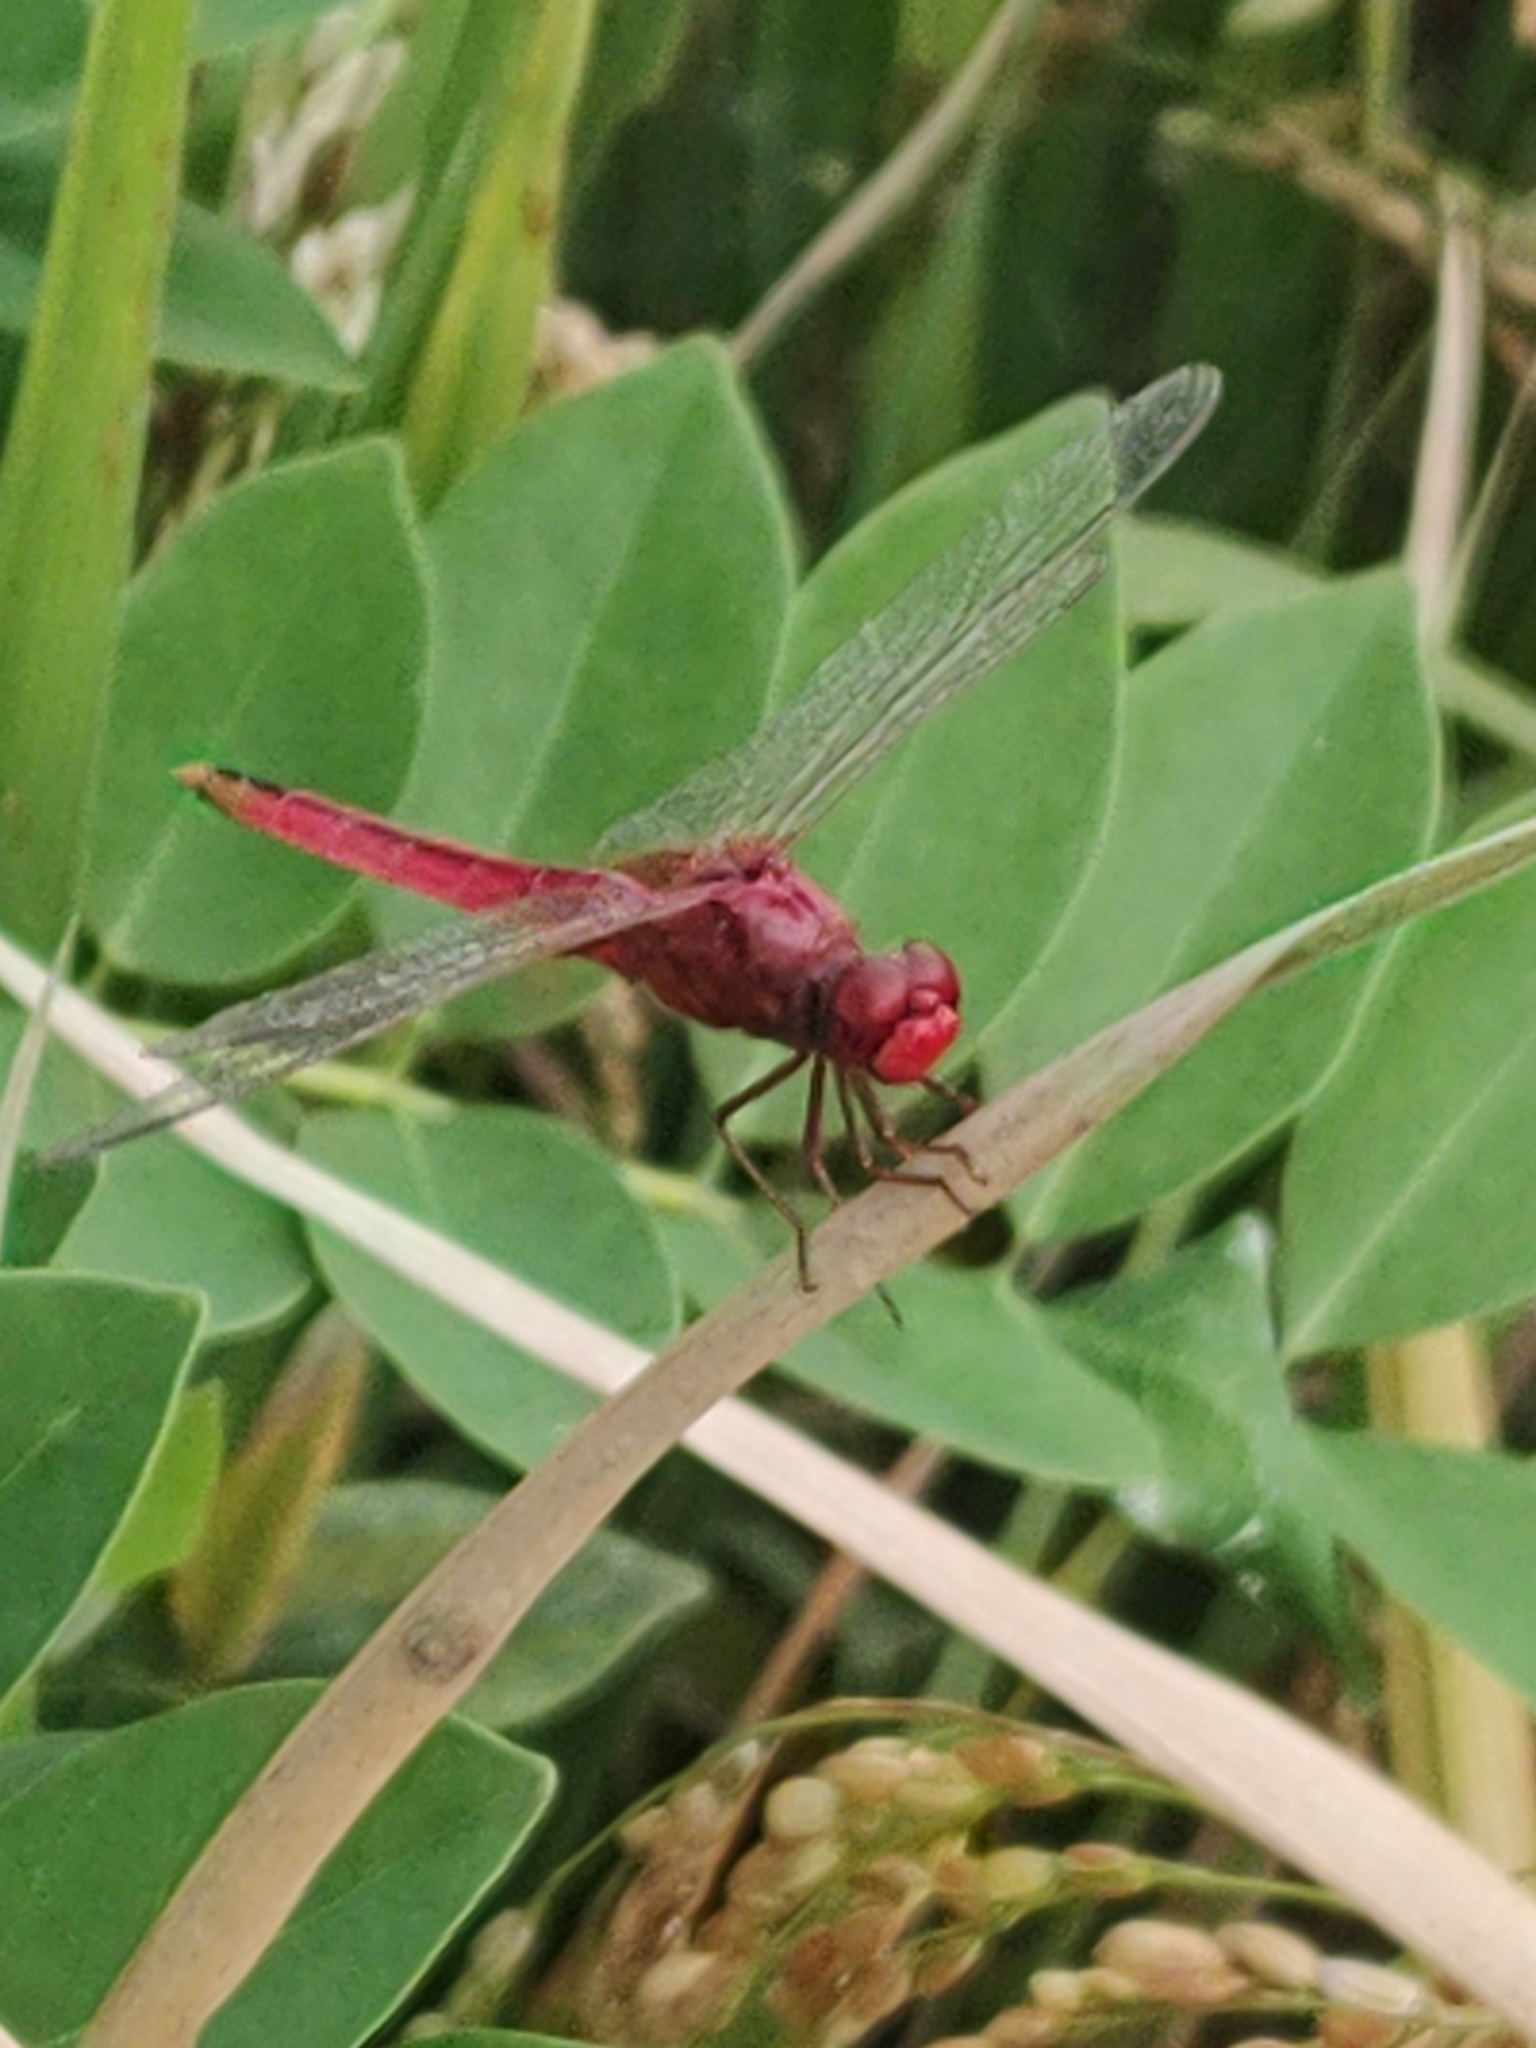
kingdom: Animalia
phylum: Arthropoda
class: Insecta
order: Odonata
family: Libellulidae
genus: Crocothemis
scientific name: Crocothemis servilia
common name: Scarlet skimmer
